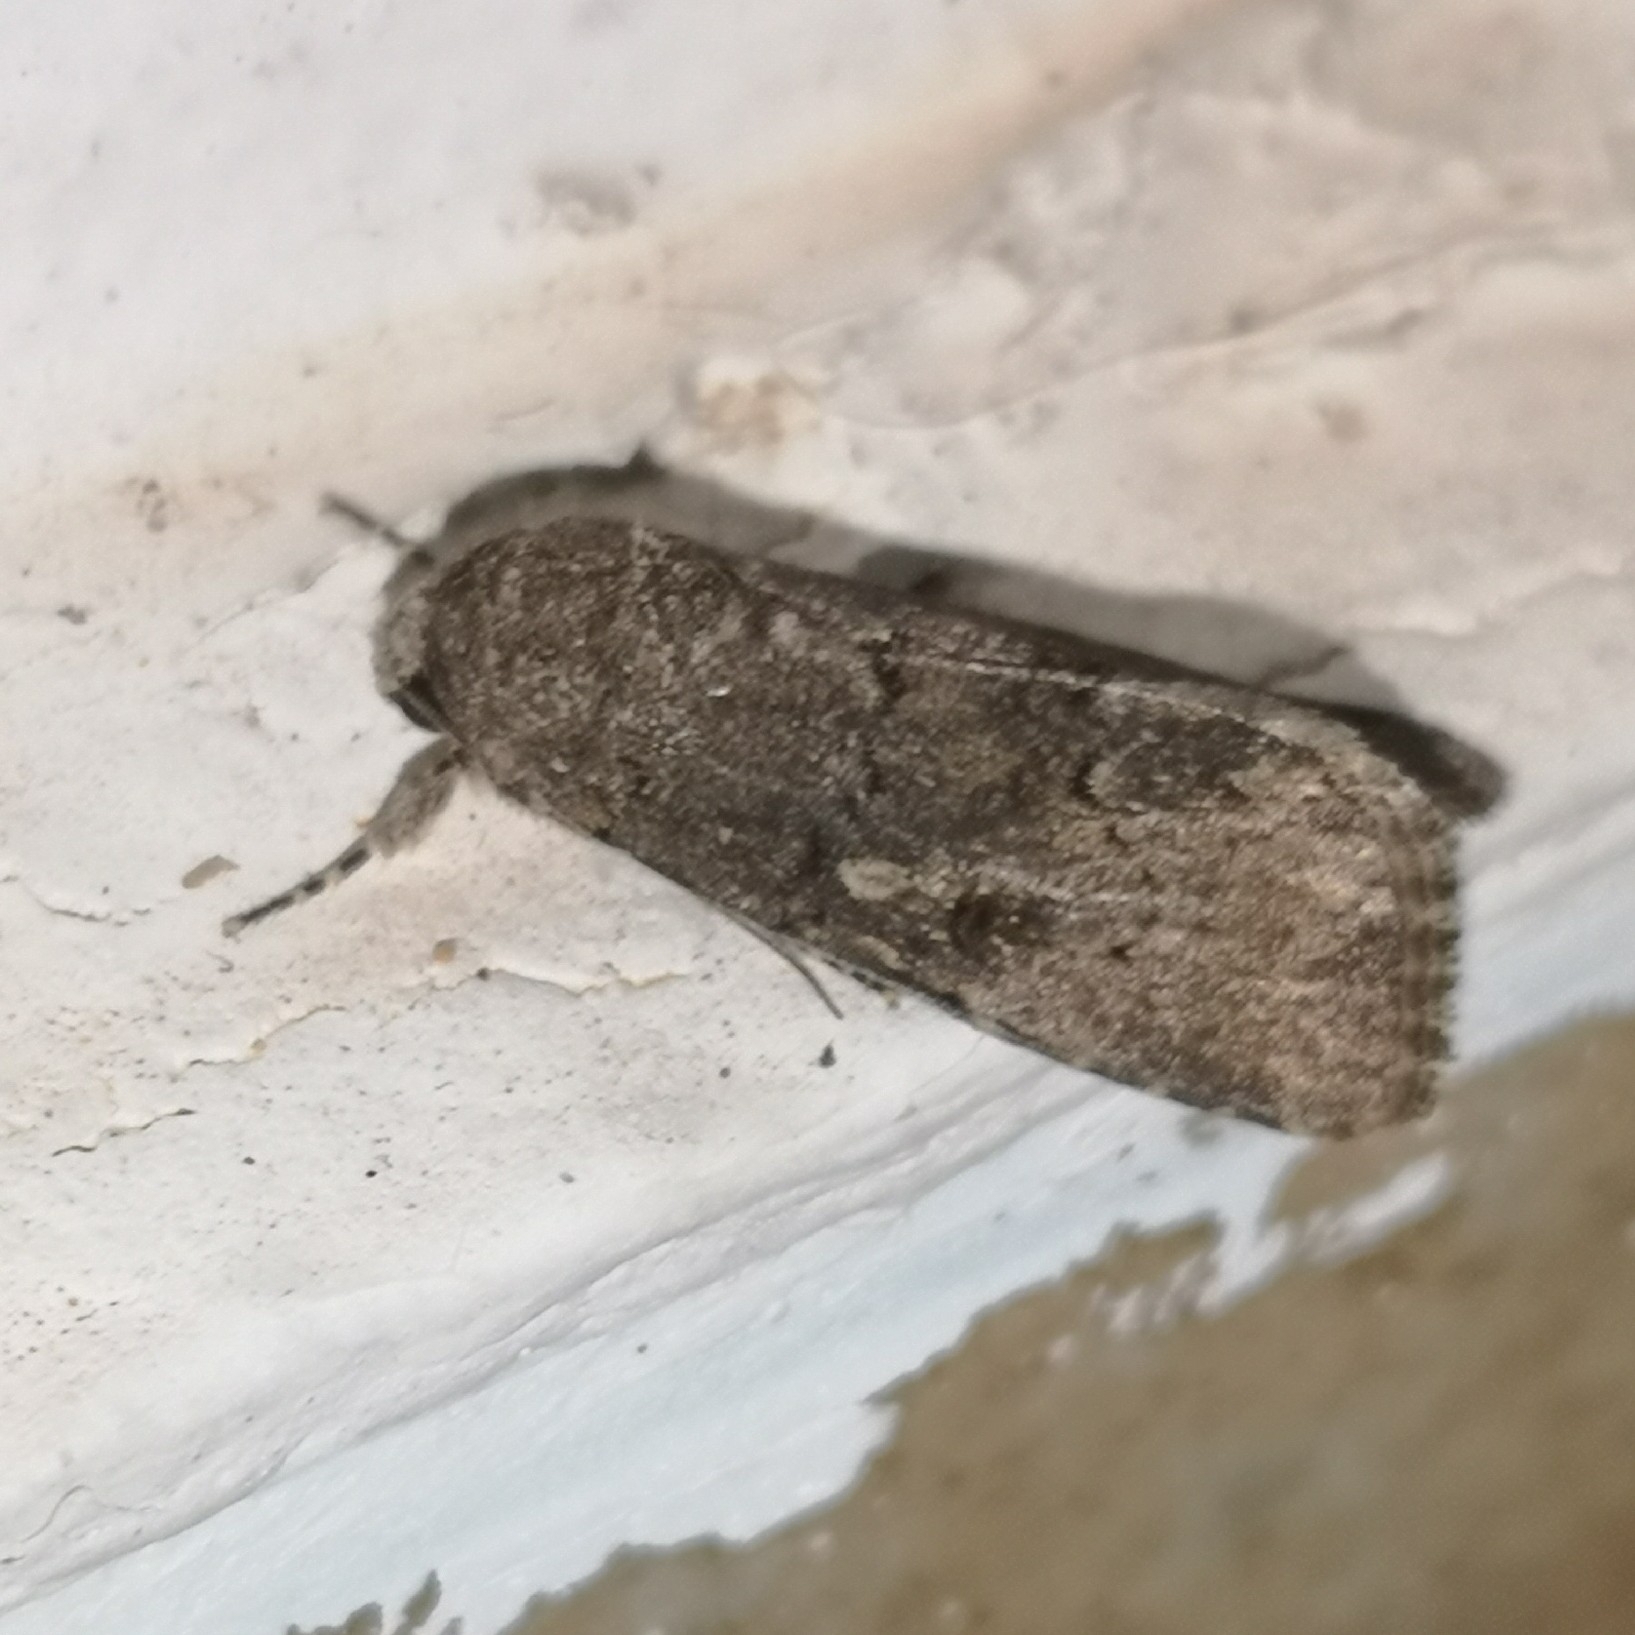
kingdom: Animalia
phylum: Arthropoda
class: Insecta
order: Lepidoptera
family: Noctuidae
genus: Spodoptera
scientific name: Spodoptera cilium
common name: Dark mottled willow
